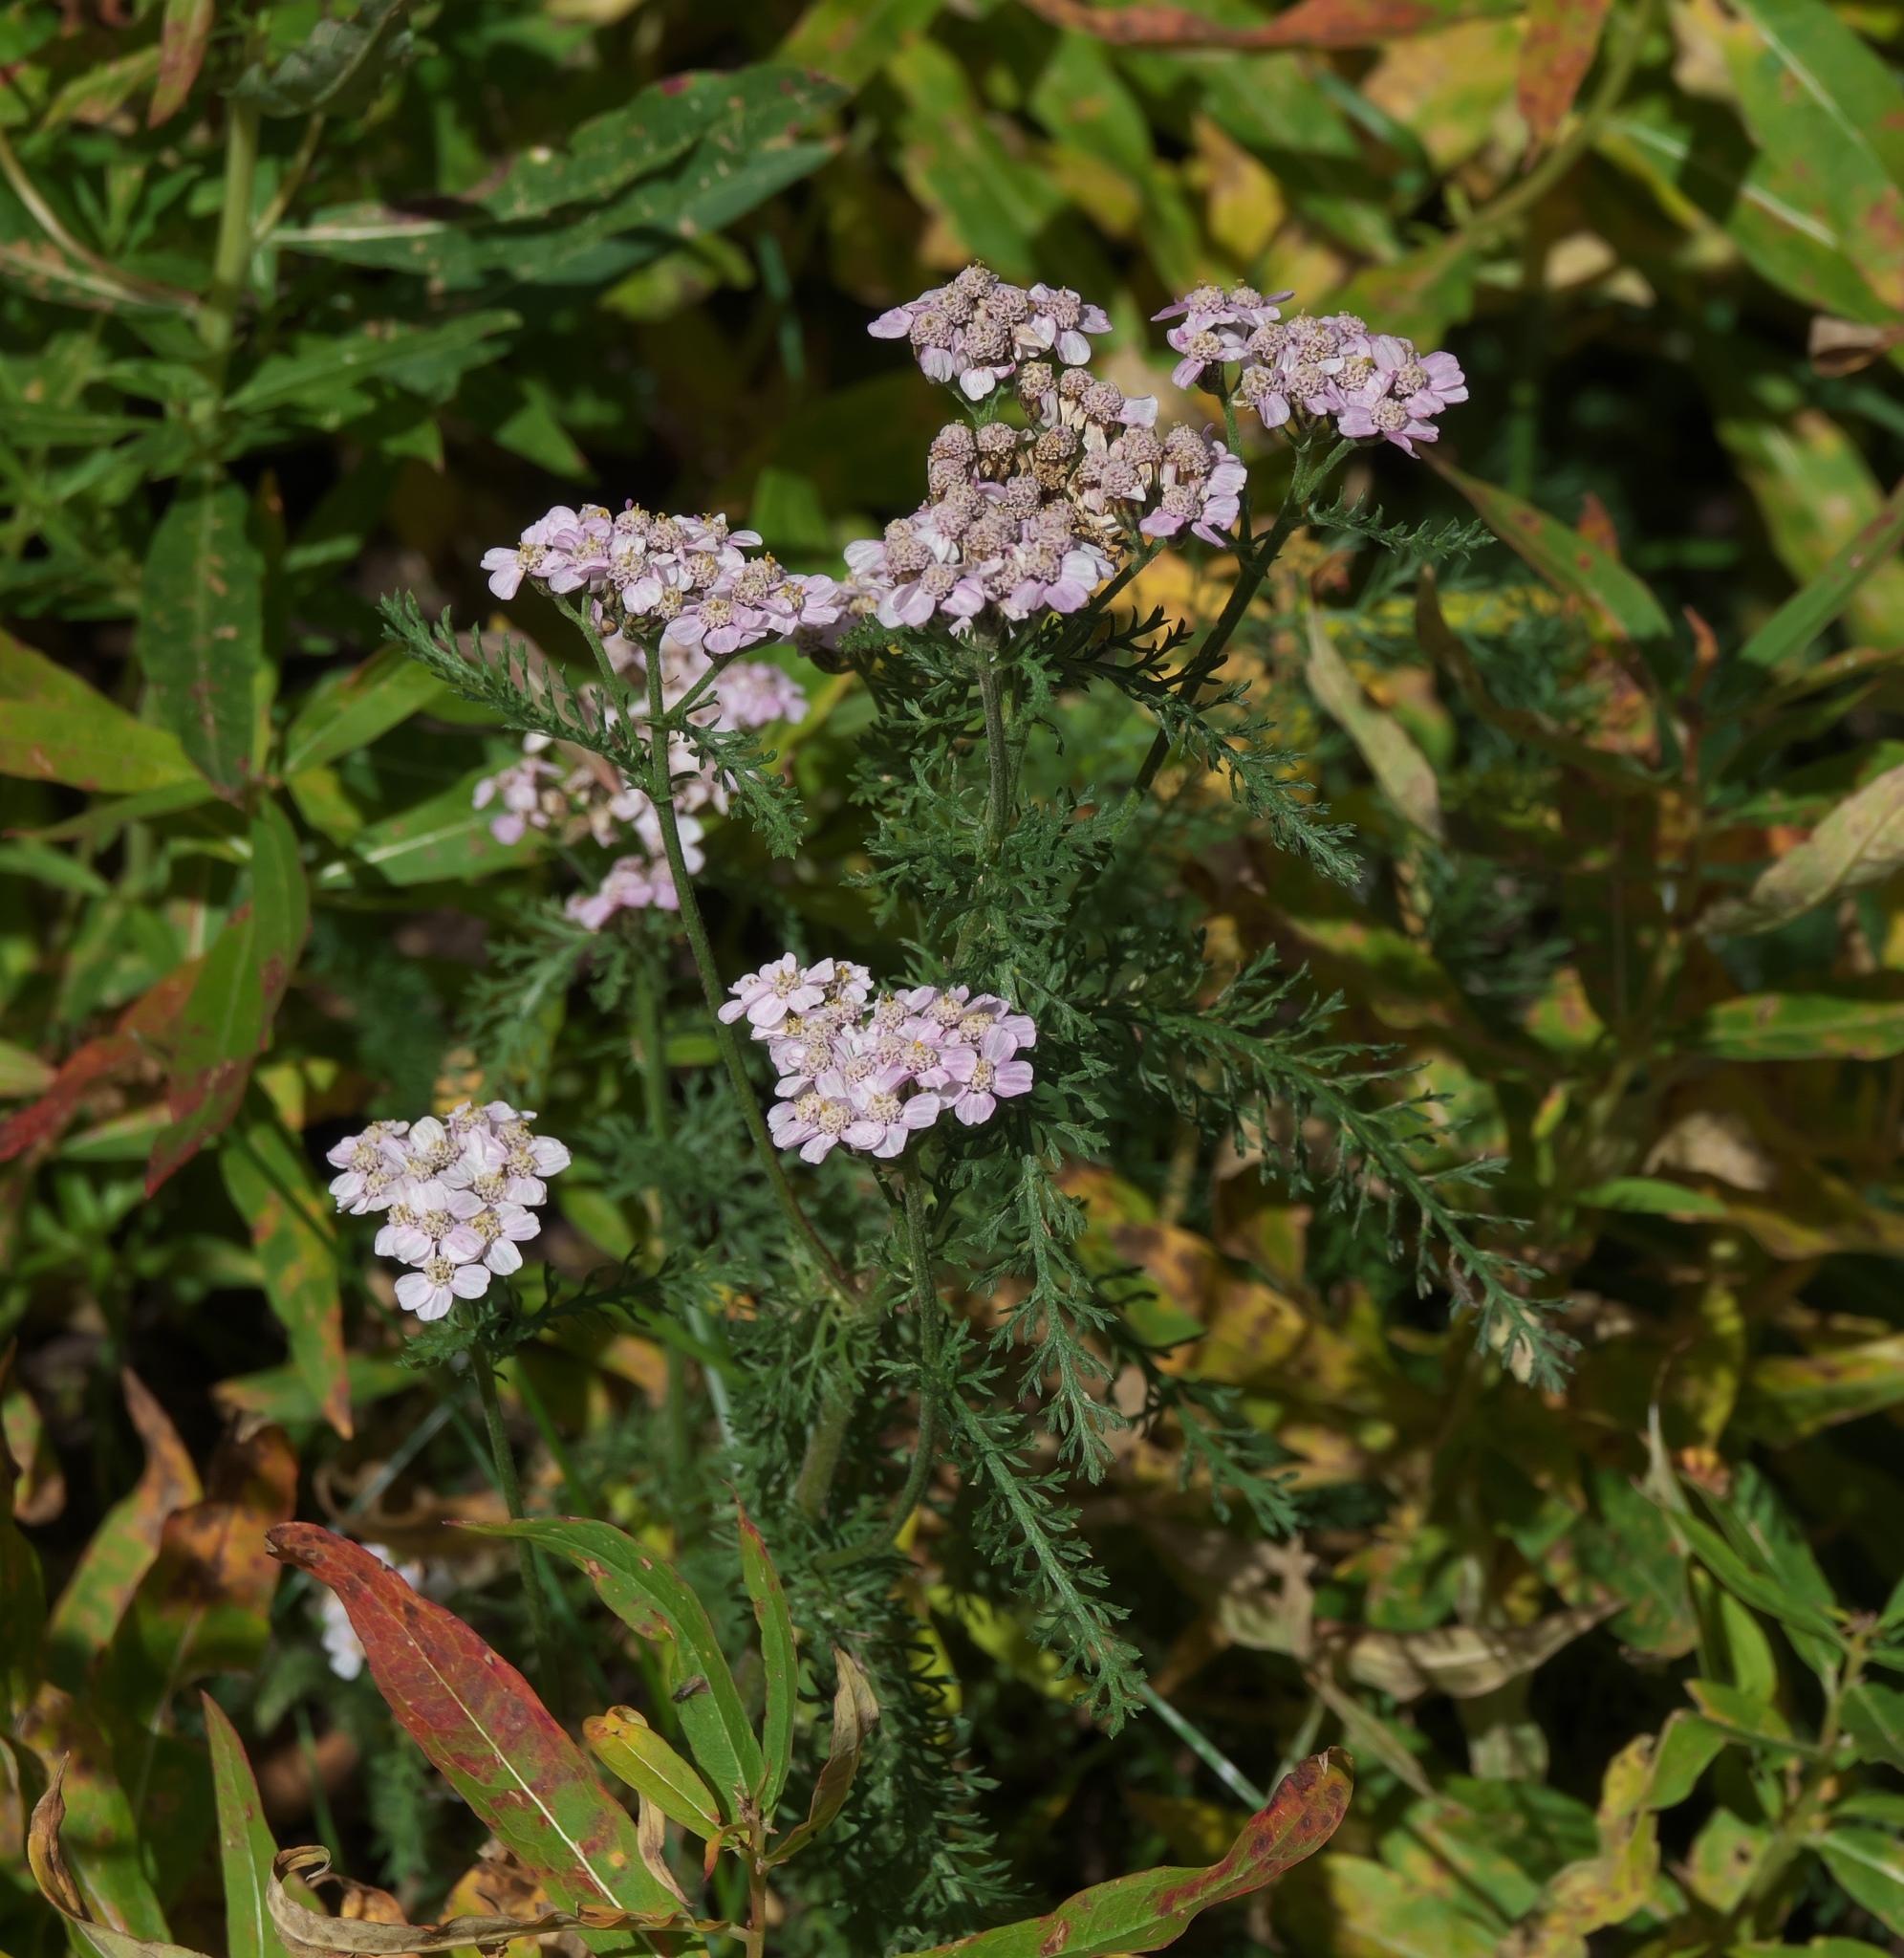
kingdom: Plantae
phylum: Tracheophyta
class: Magnoliopsida
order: Asterales
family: Asteraceae
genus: Achillea
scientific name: Achillea millefolium
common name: Yarrow
